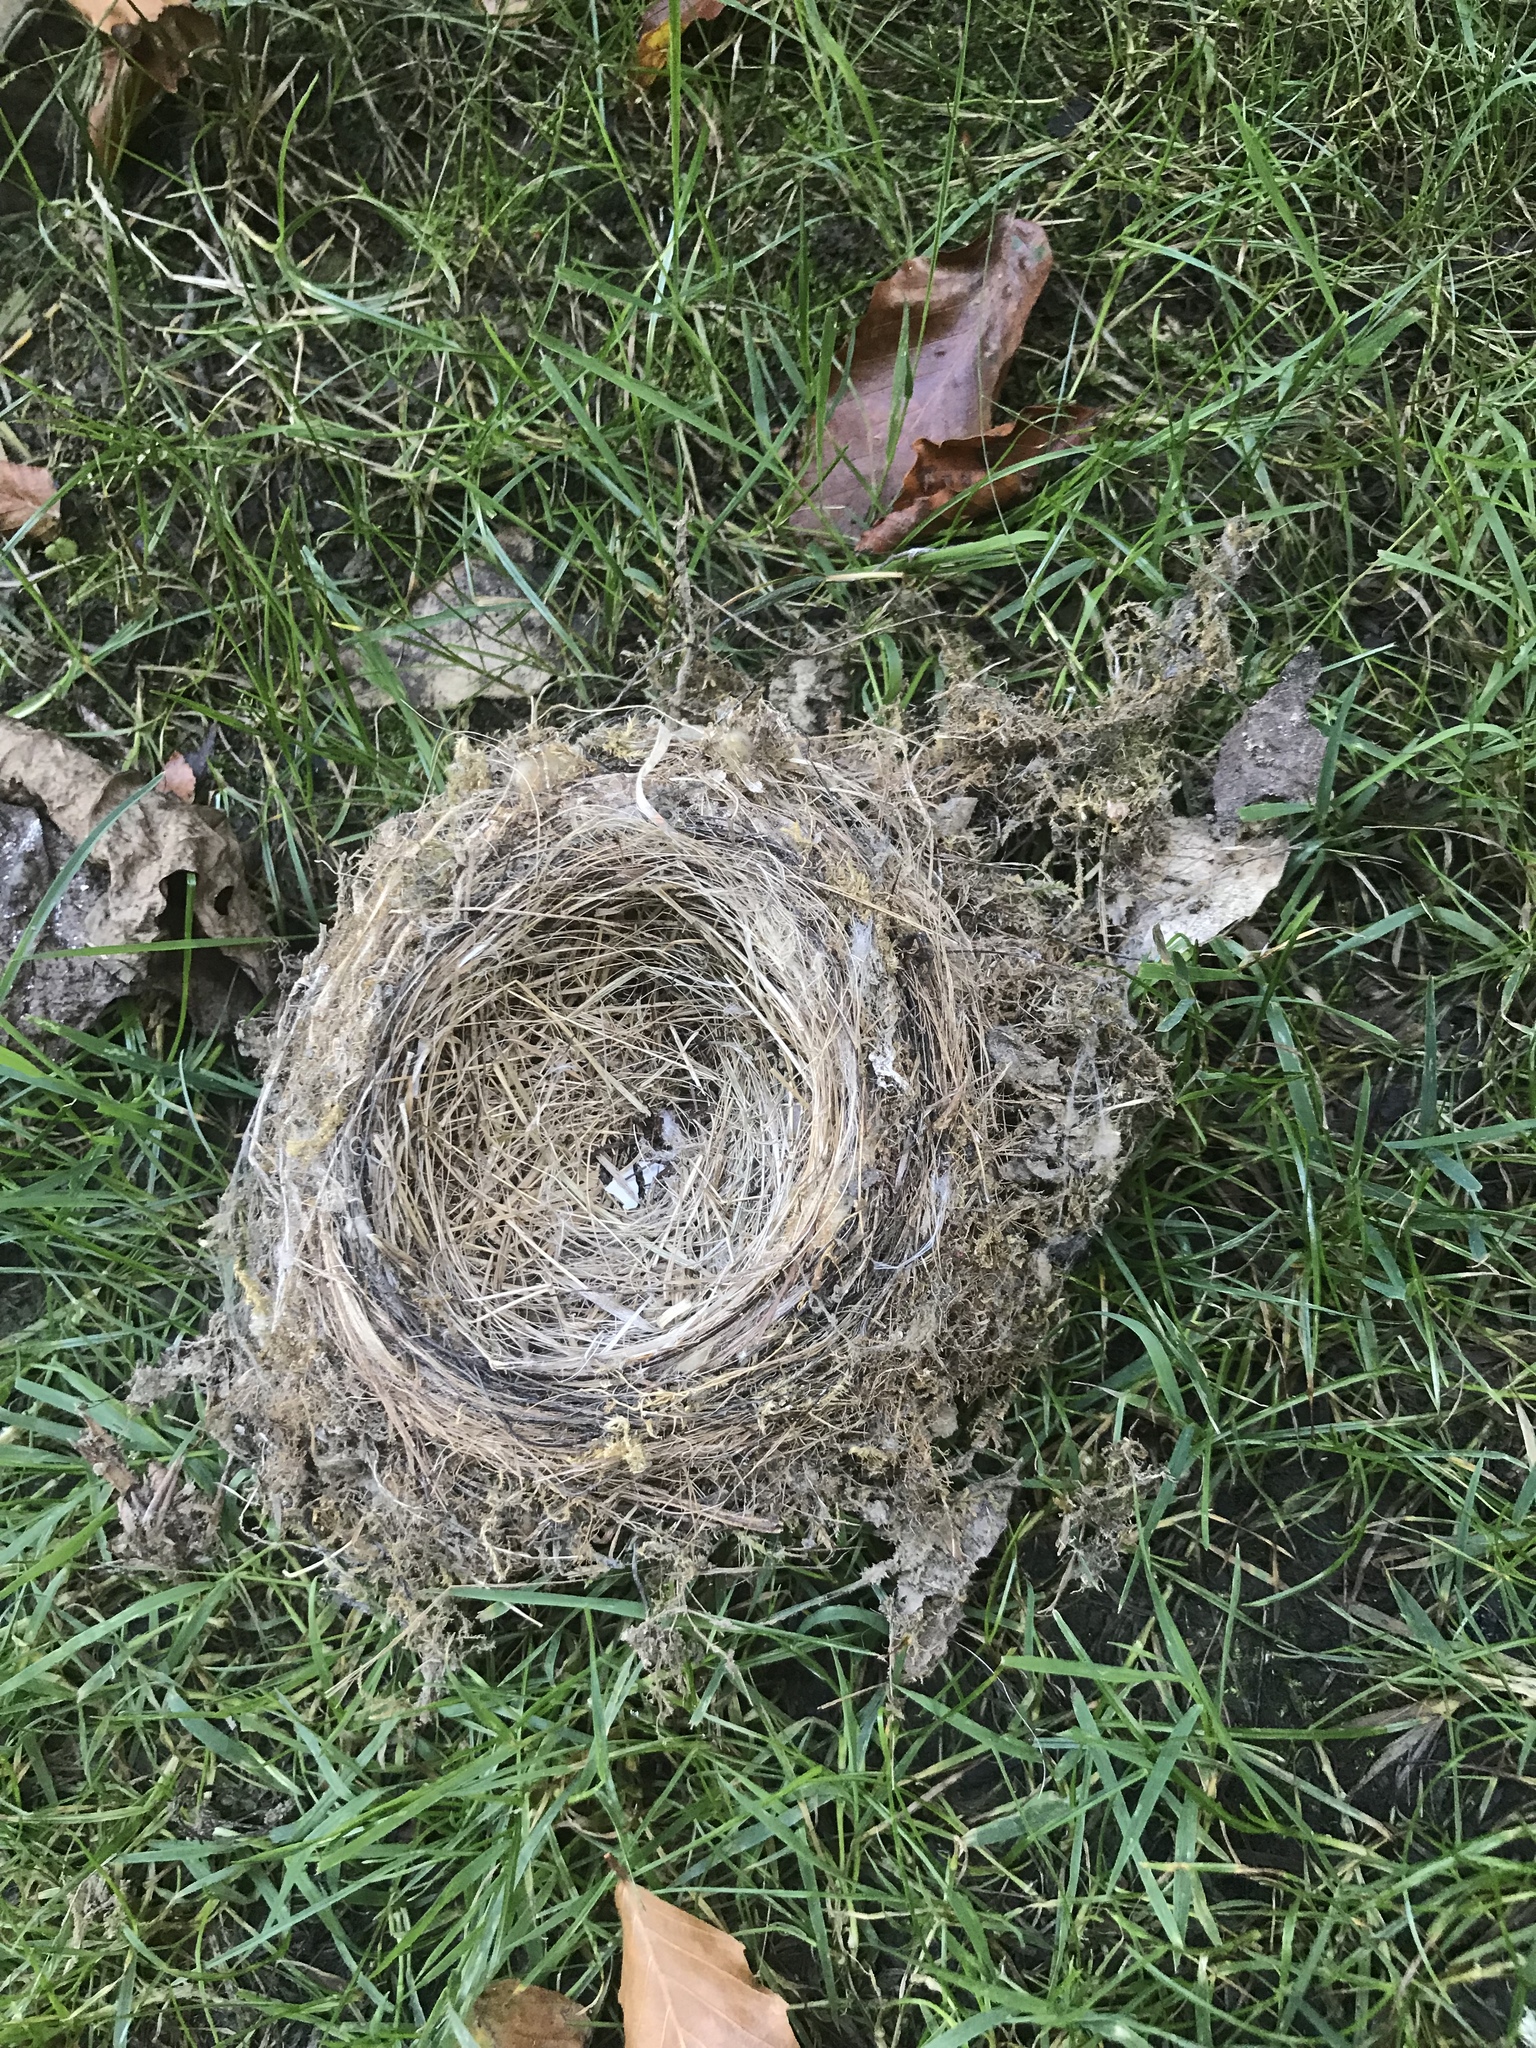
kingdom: Animalia
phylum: Chordata
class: Aves
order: Passeriformes
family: Tyrannidae
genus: Sayornis
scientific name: Sayornis phoebe
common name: Eastern phoebe
